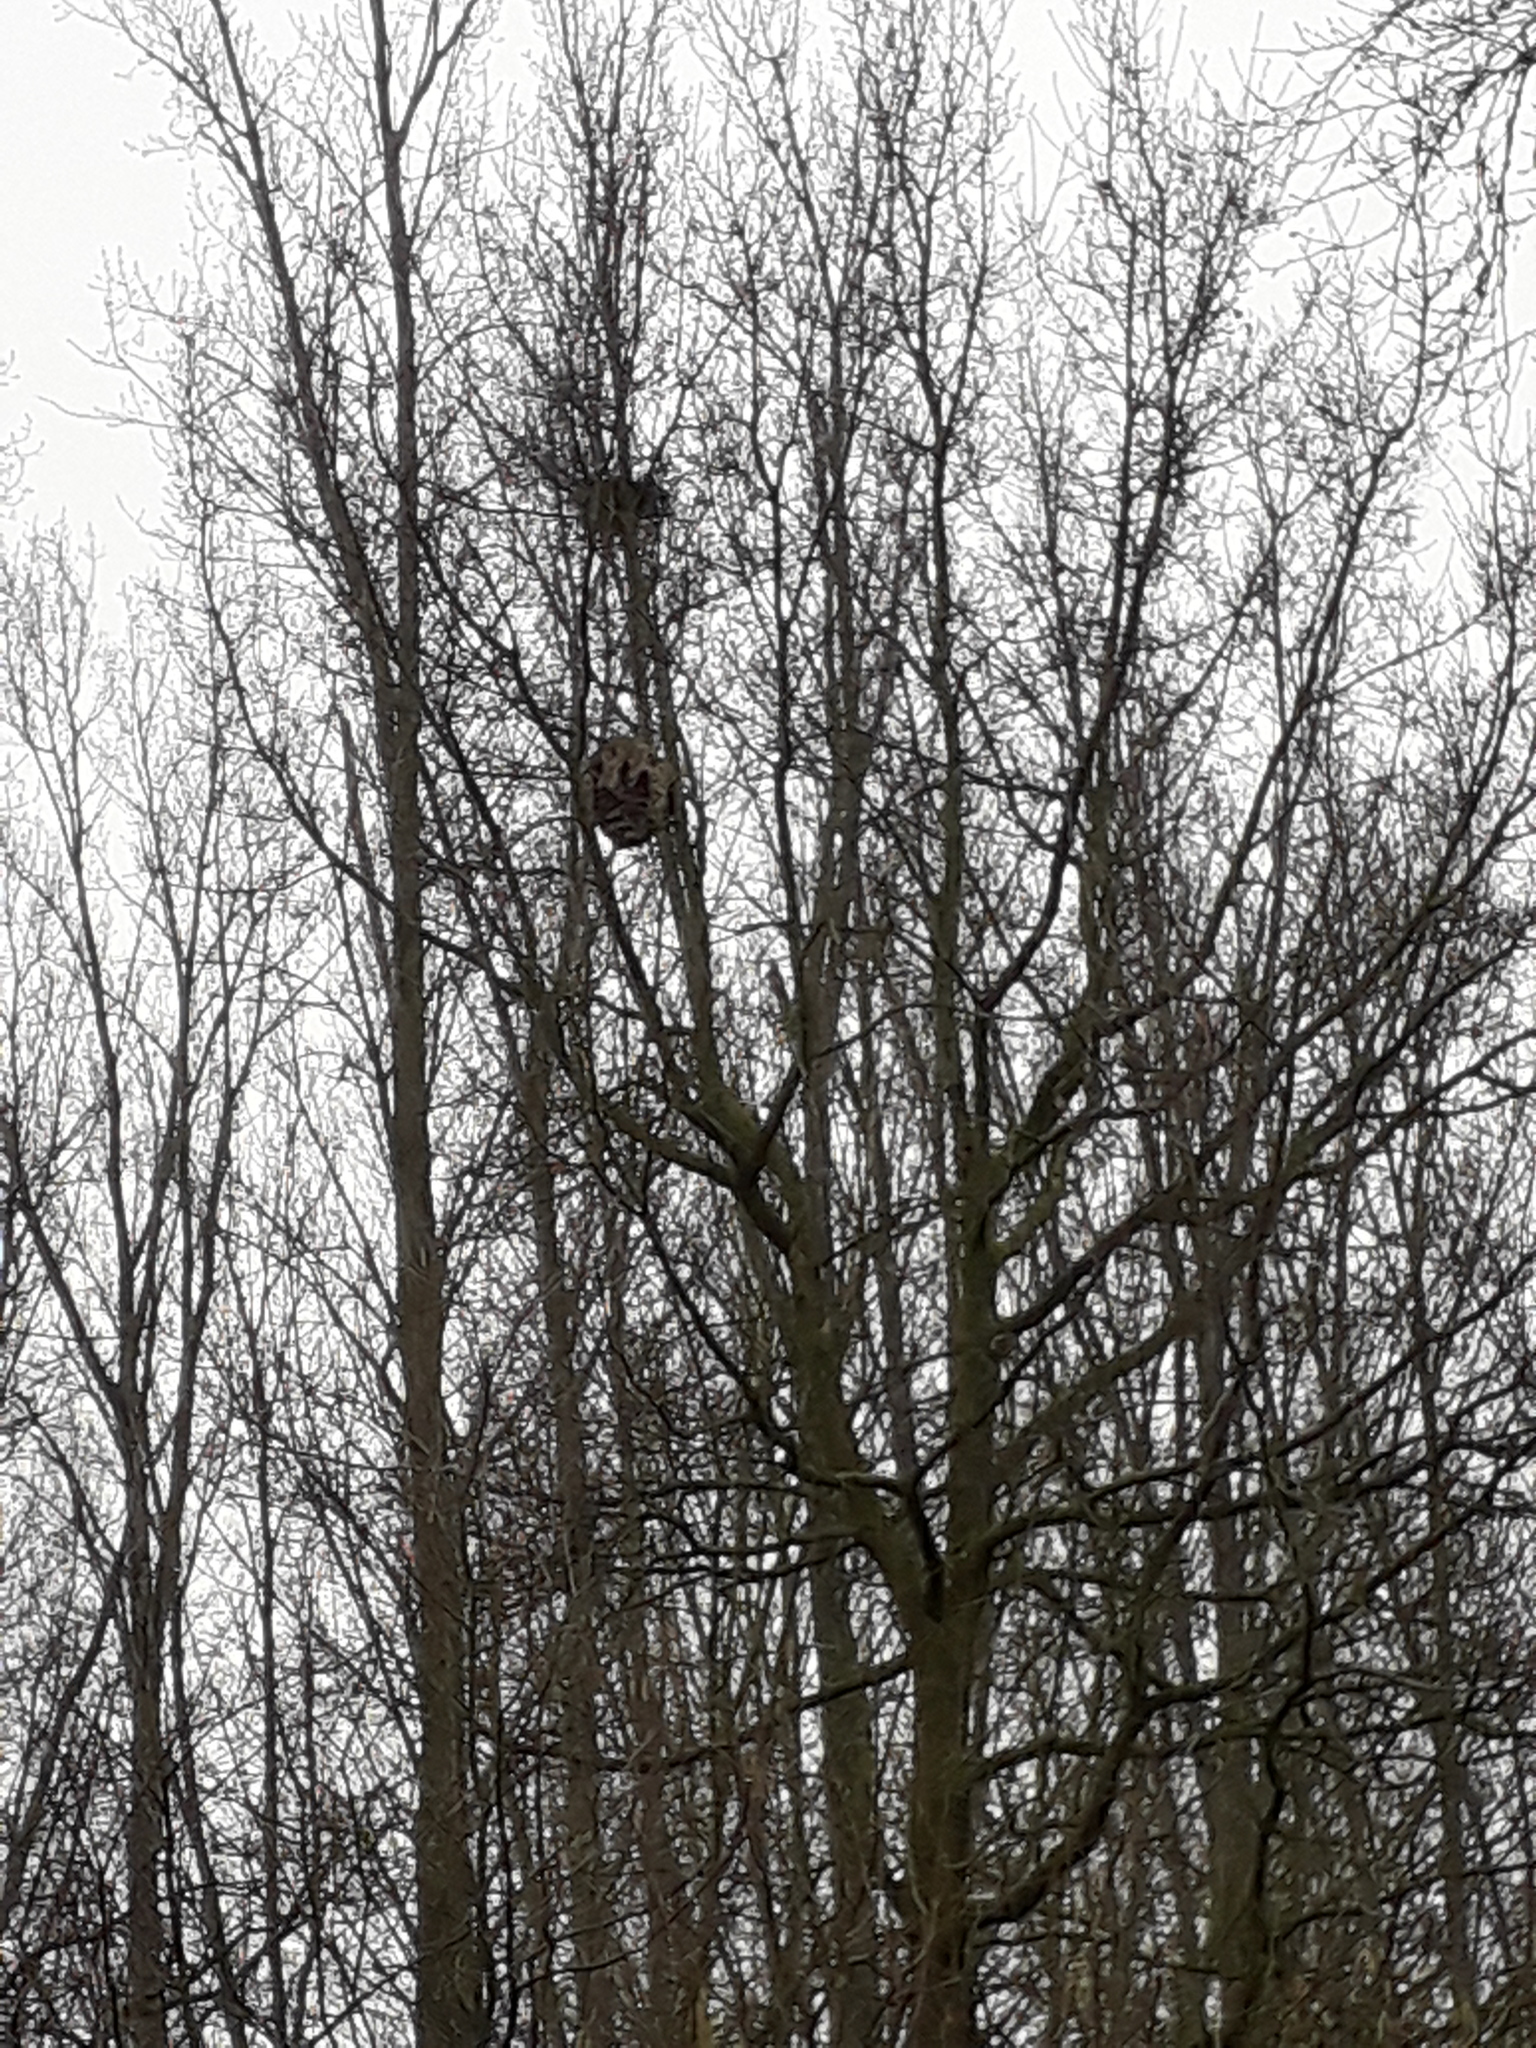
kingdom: Animalia
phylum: Arthropoda
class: Insecta
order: Hymenoptera
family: Vespidae
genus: Vespa
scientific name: Vespa velutina
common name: Asian hornet
